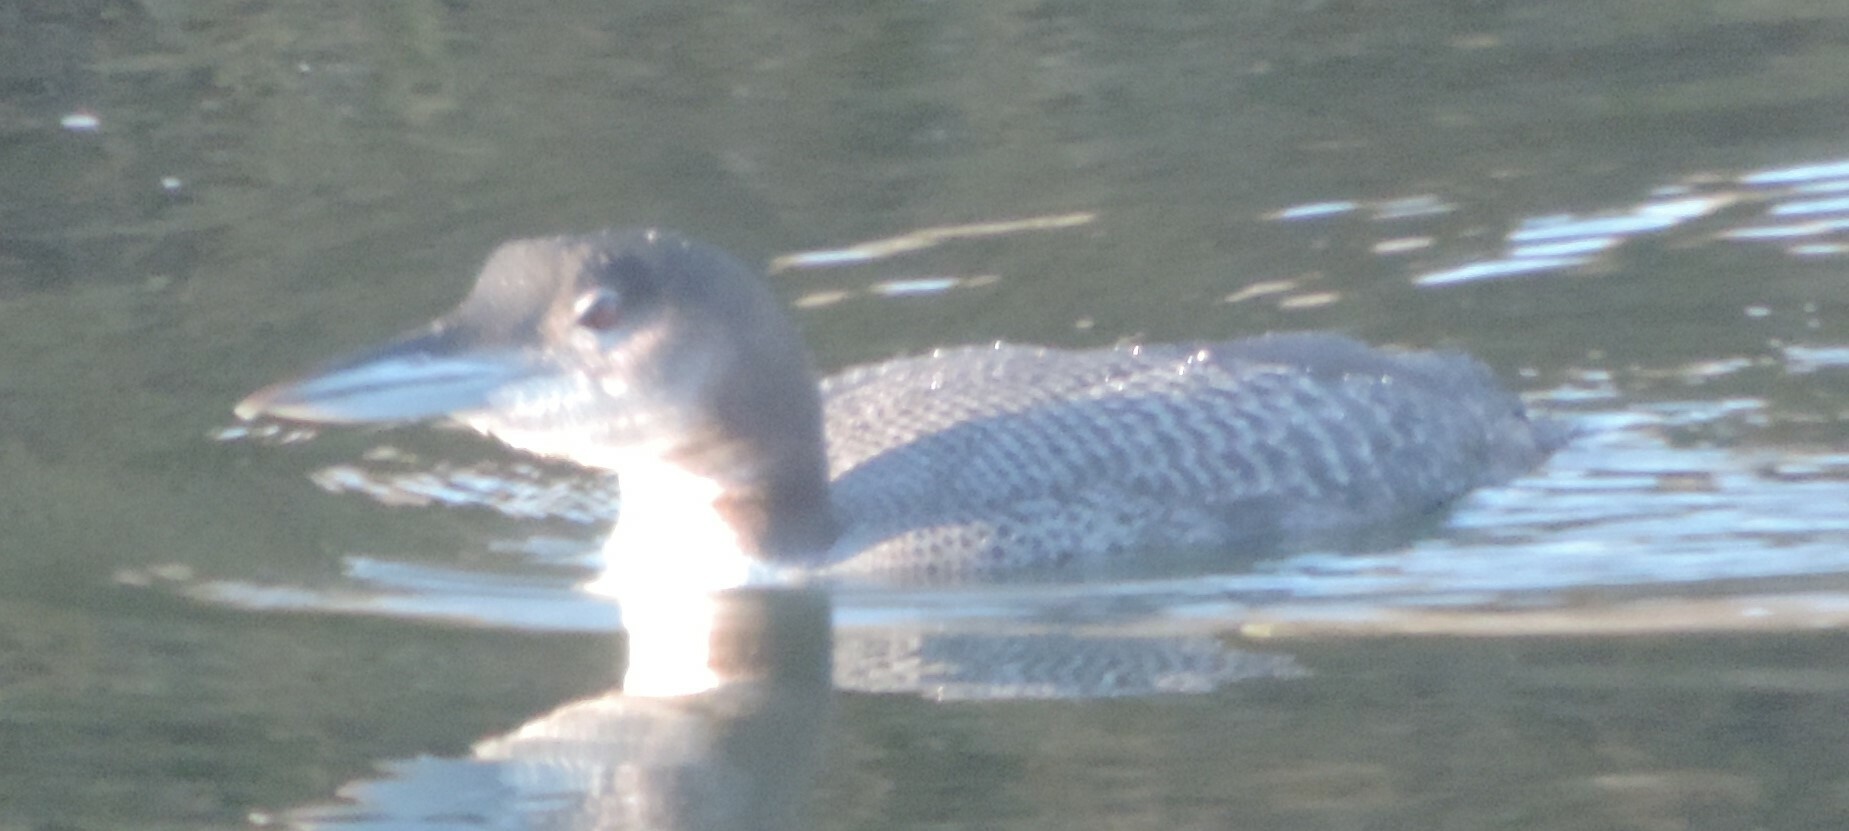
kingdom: Animalia
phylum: Chordata
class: Aves
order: Gaviiformes
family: Gaviidae
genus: Gavia
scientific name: Gavia immer
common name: Common loon
